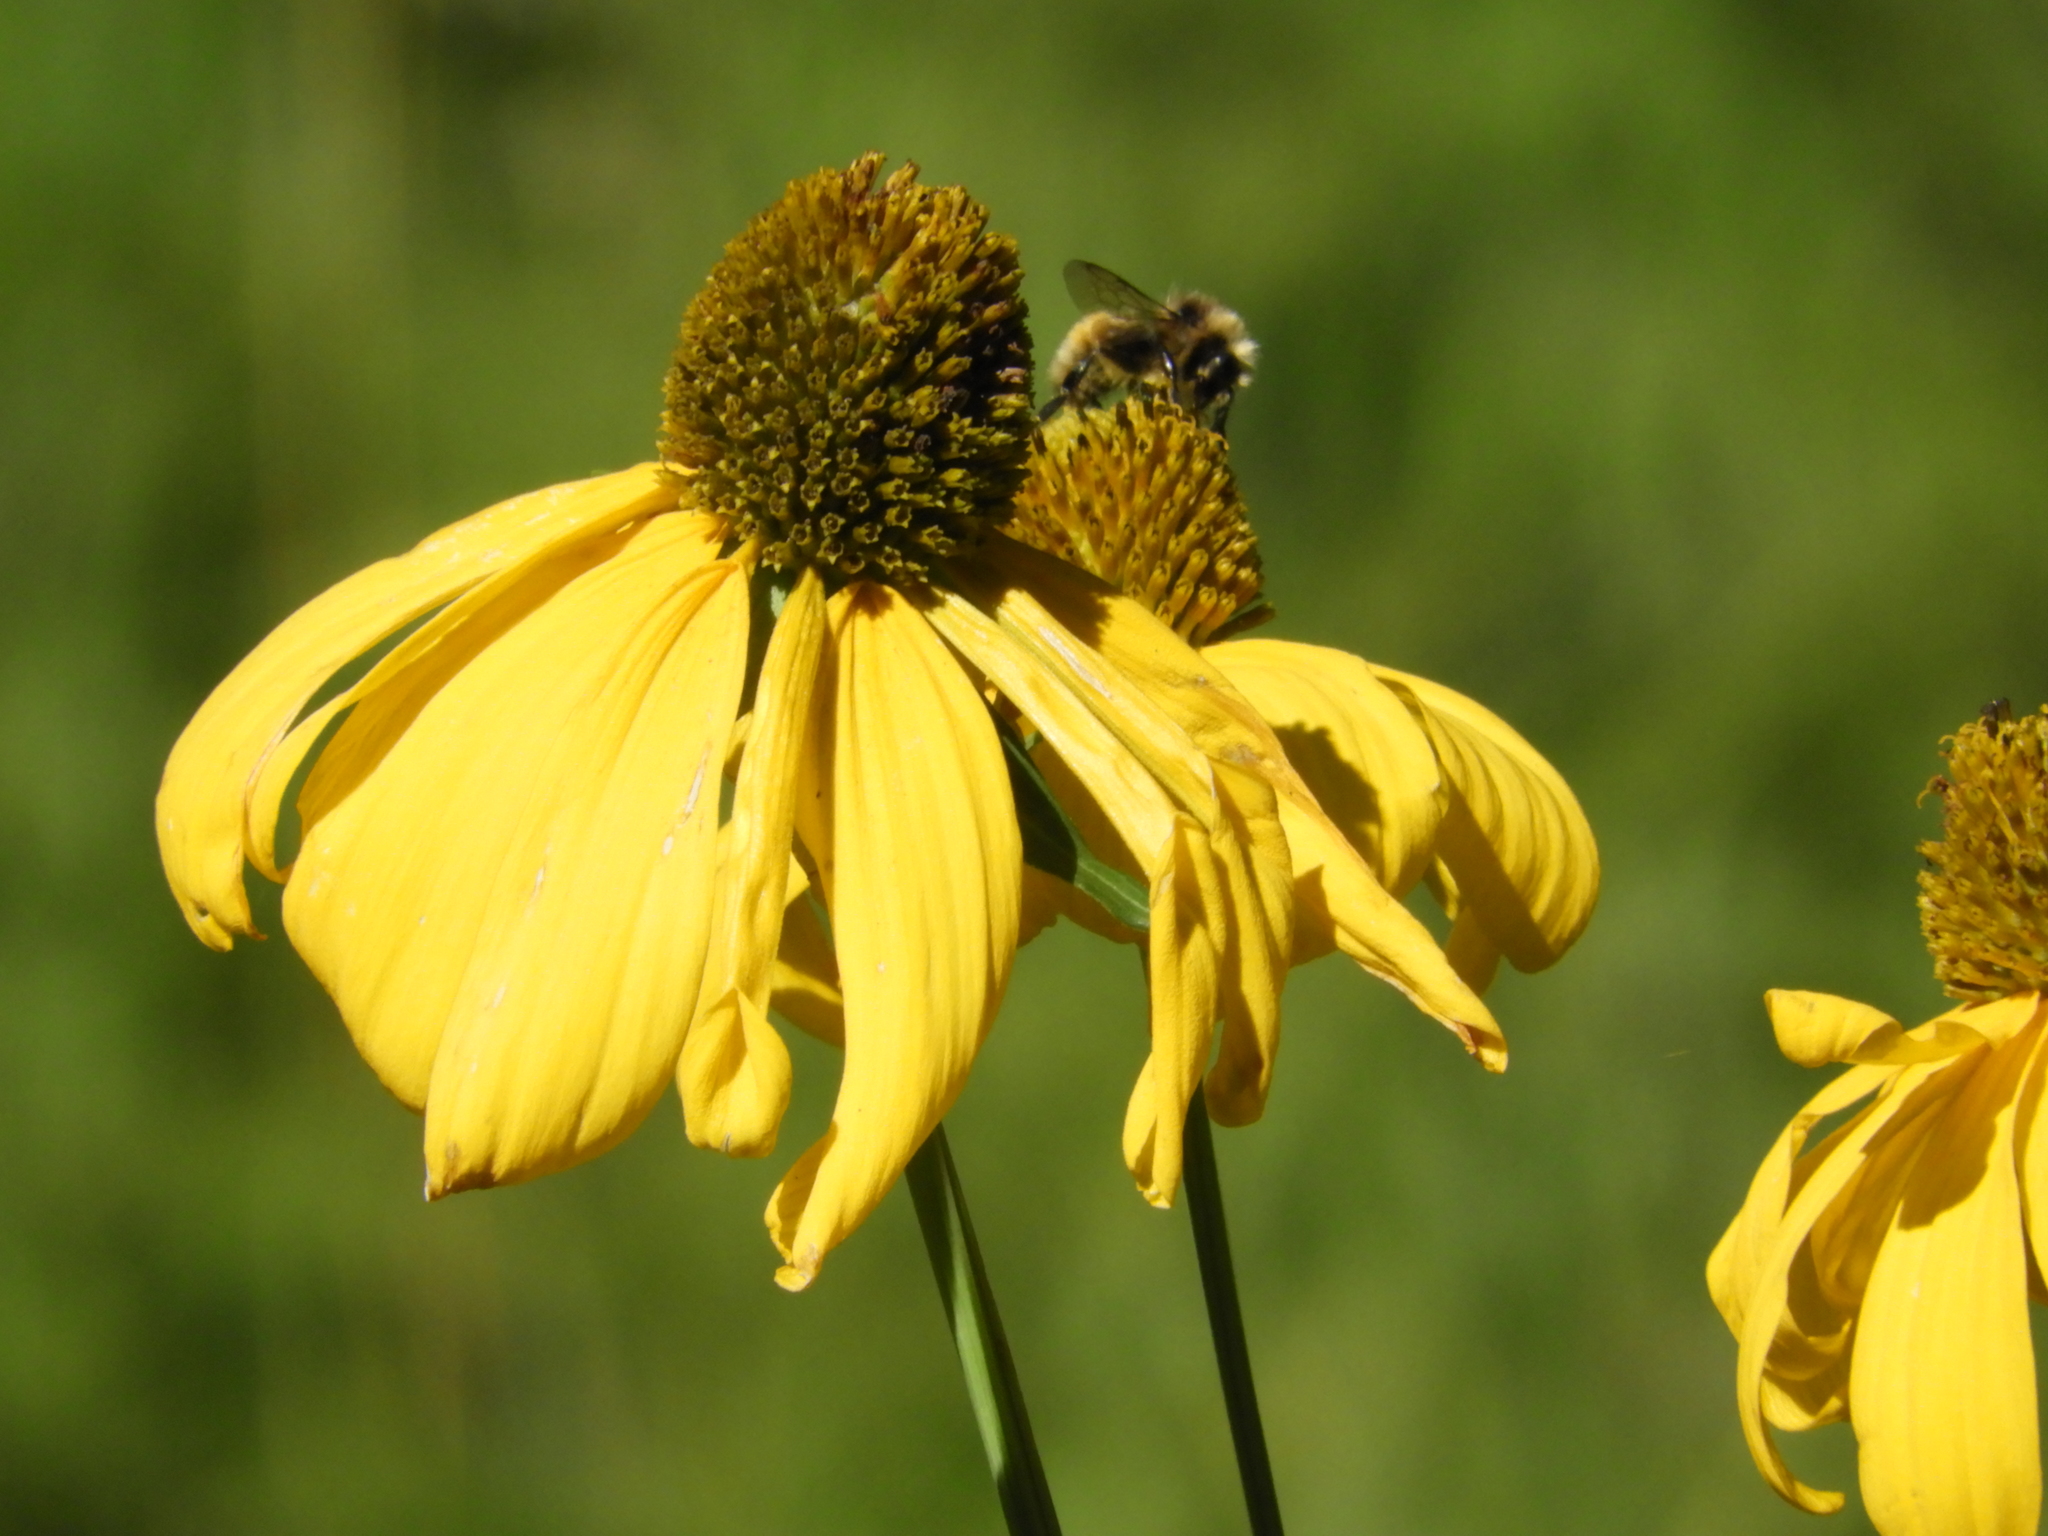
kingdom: Plantae
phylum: Tracheophyta
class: Magnoliopsida
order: Asterales
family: Asteraceae
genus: Rudbeckia
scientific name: Rudbeckia laciniata
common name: Coneflower
